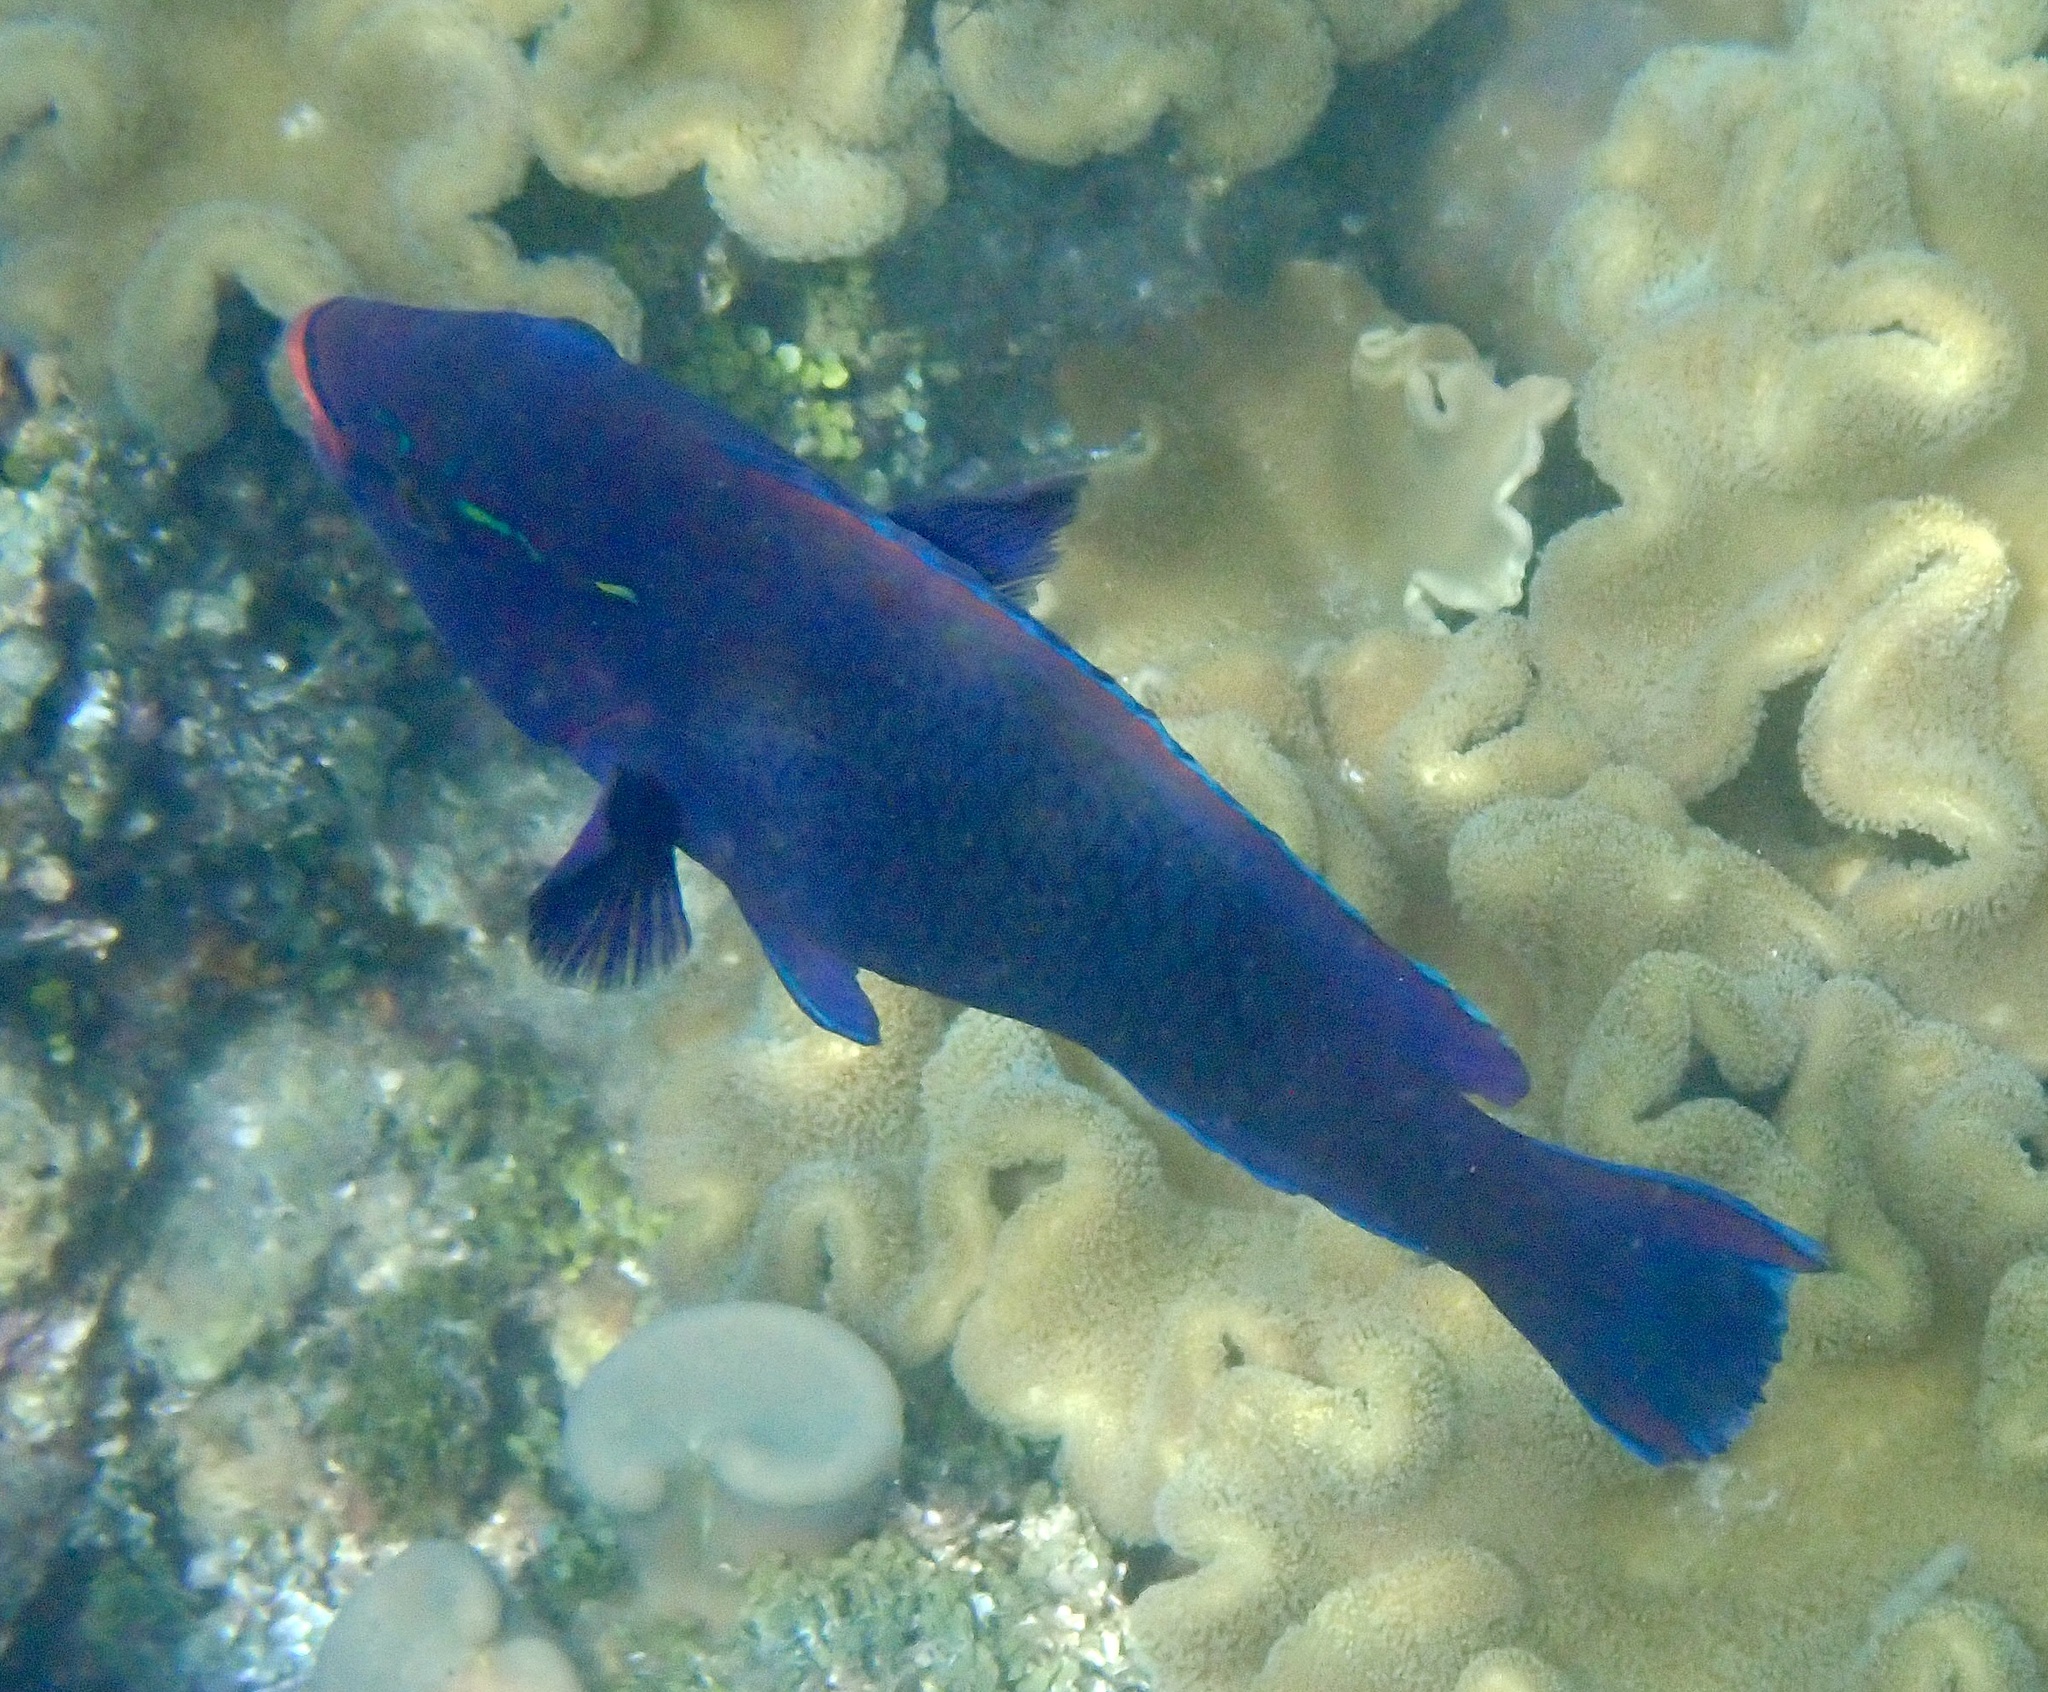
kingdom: Animalia
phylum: Chordata
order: Perciformes
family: Scaridae
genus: Scarus
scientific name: Scarus niger
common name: Dusky parrotfish
